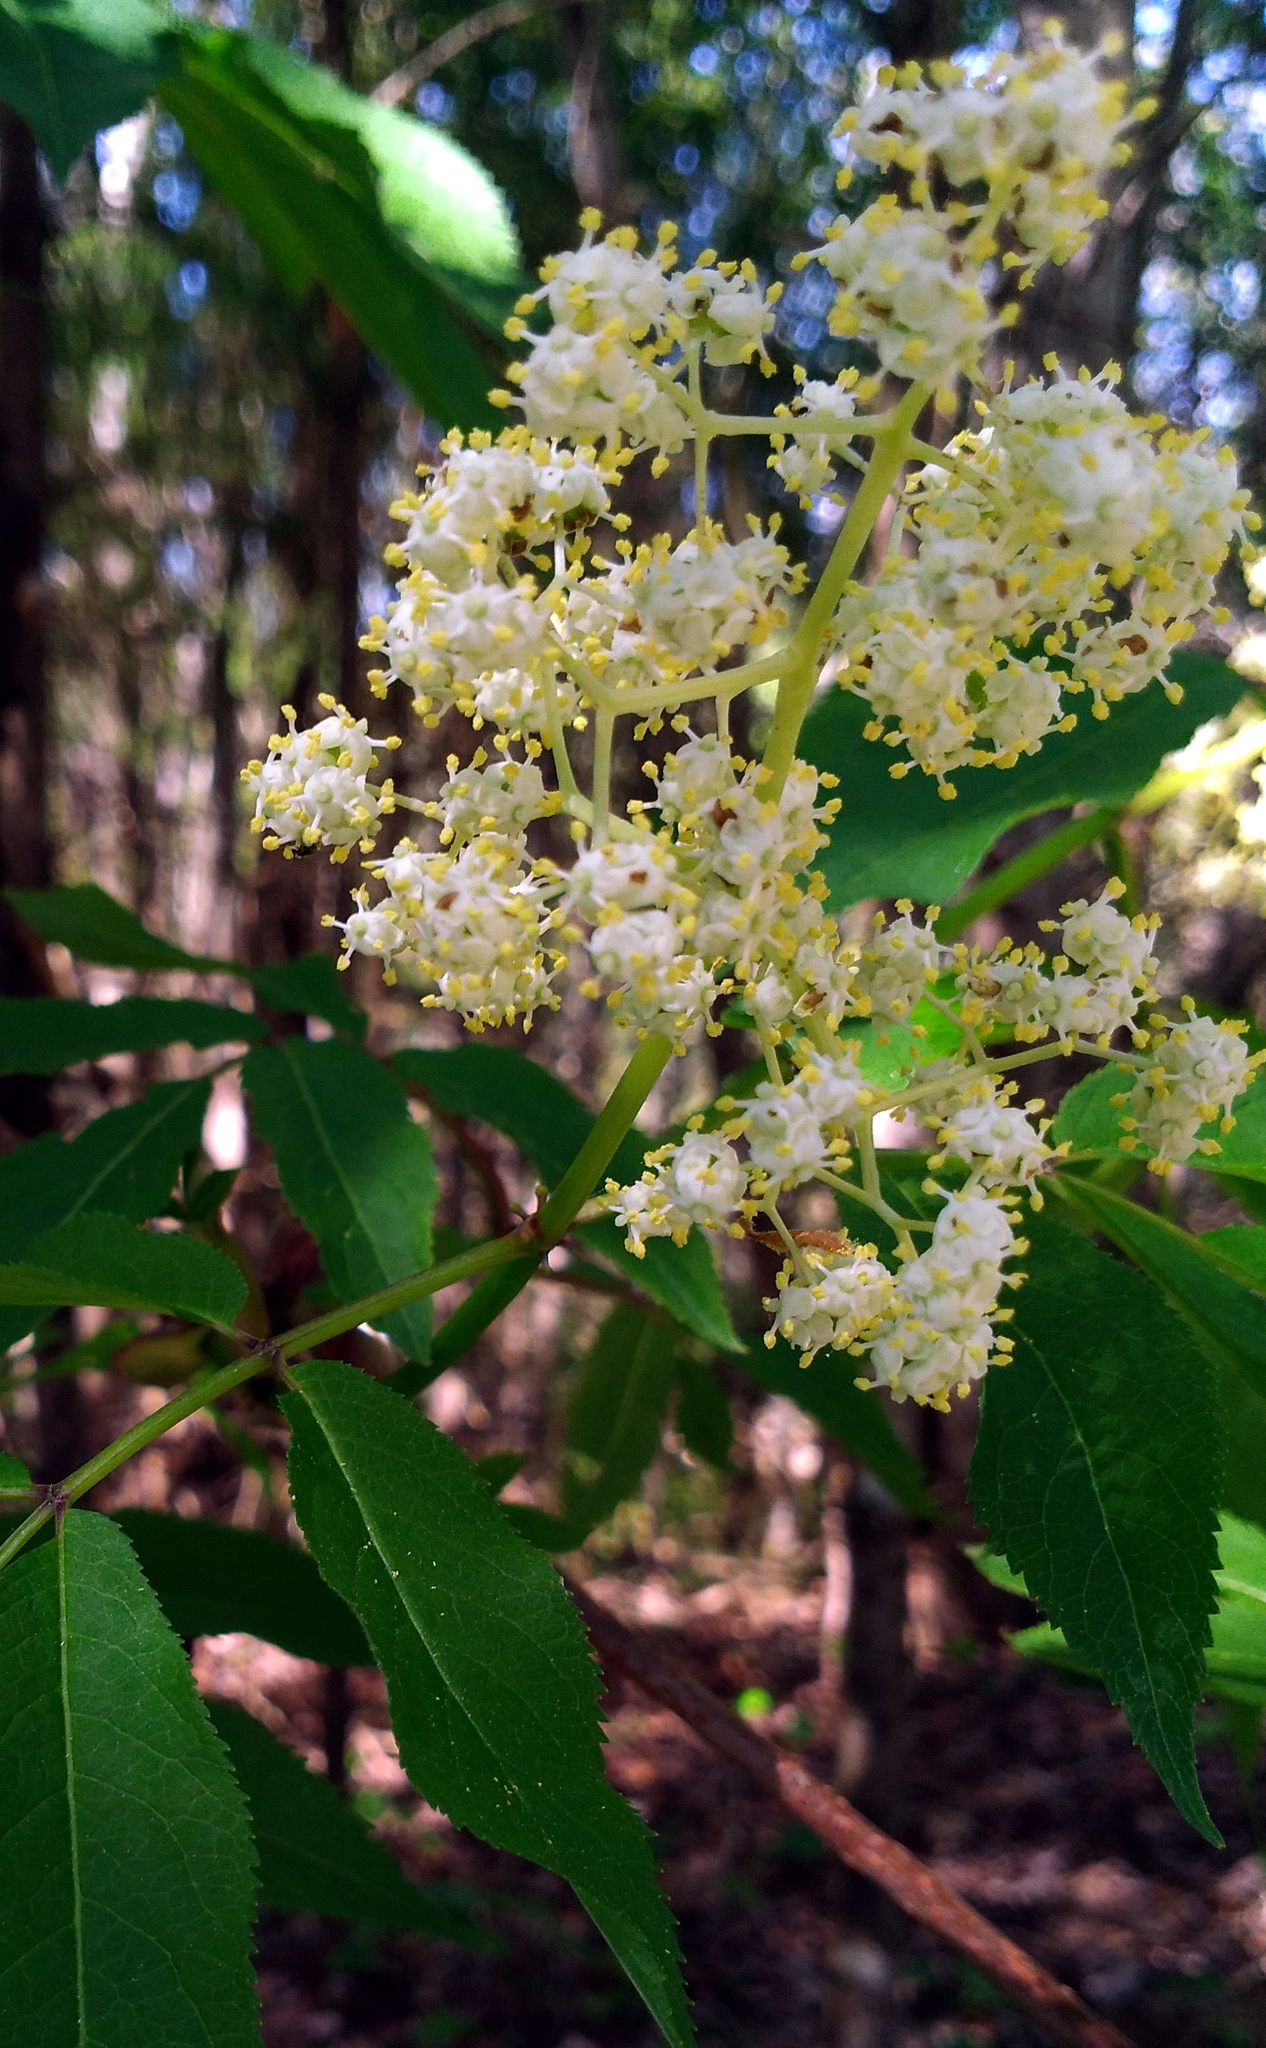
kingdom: Plantae
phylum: Tracheophyta
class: Magnoliopsida
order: Dipsacales
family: Viburnaceae
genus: Sambucus
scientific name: Sambucus racemosa
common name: Red-berried elder
